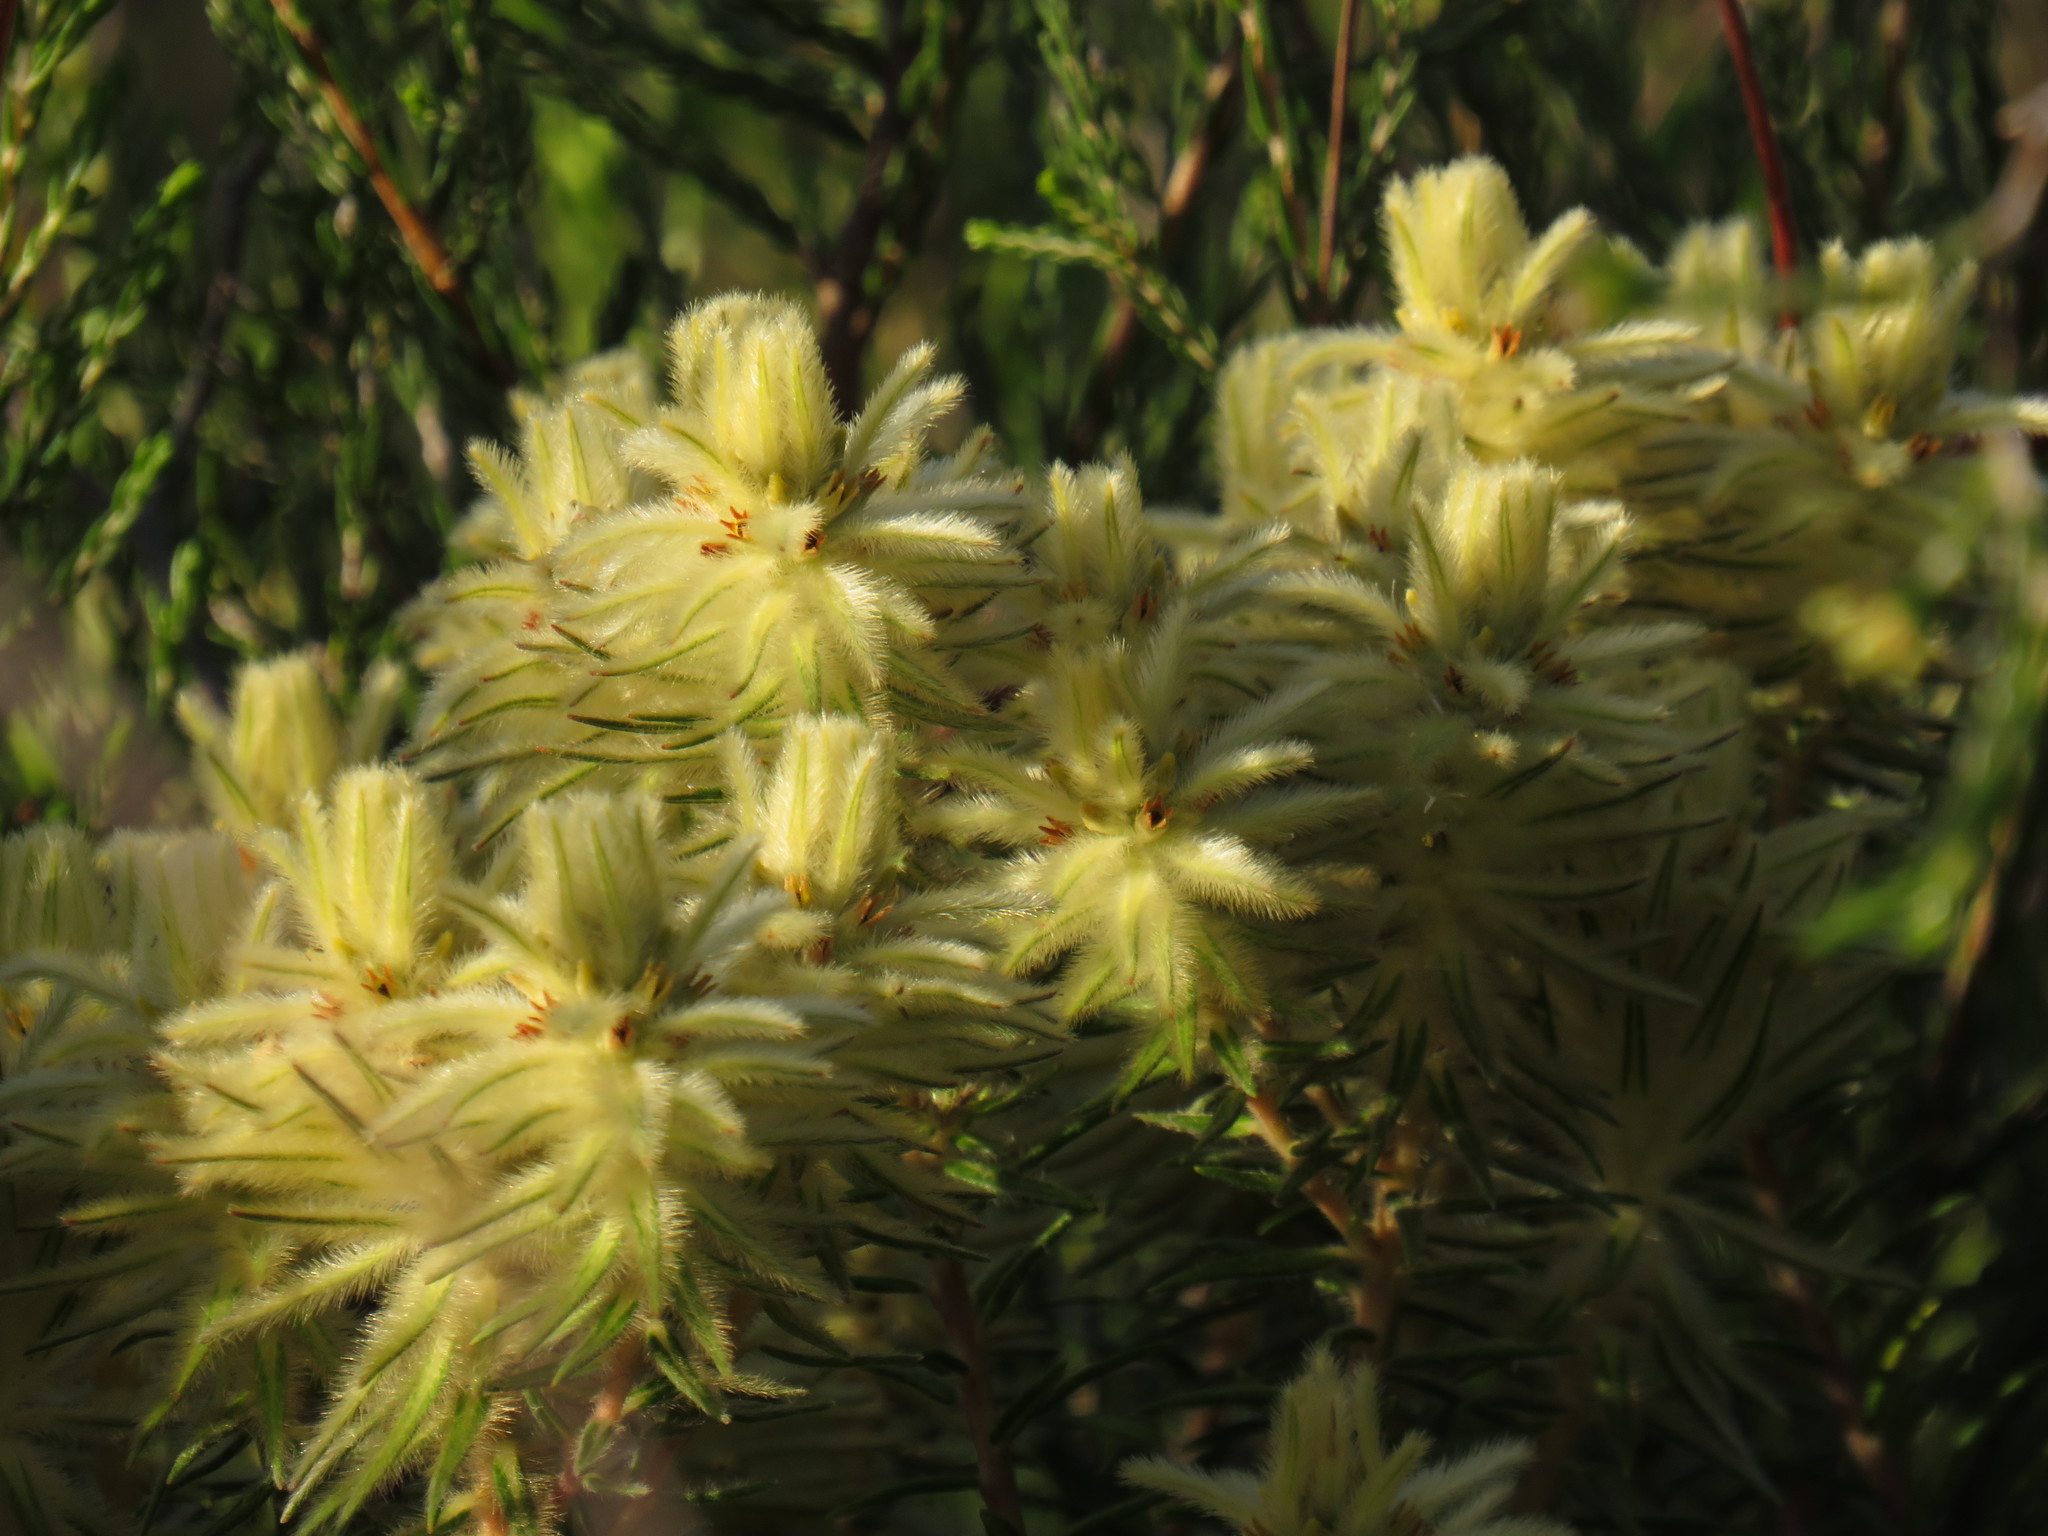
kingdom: Plantae
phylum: Tracheophyta
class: Magnoliopsida
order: Rosales
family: Rhamnaceae
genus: Phylica
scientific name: Phylica plumosa
